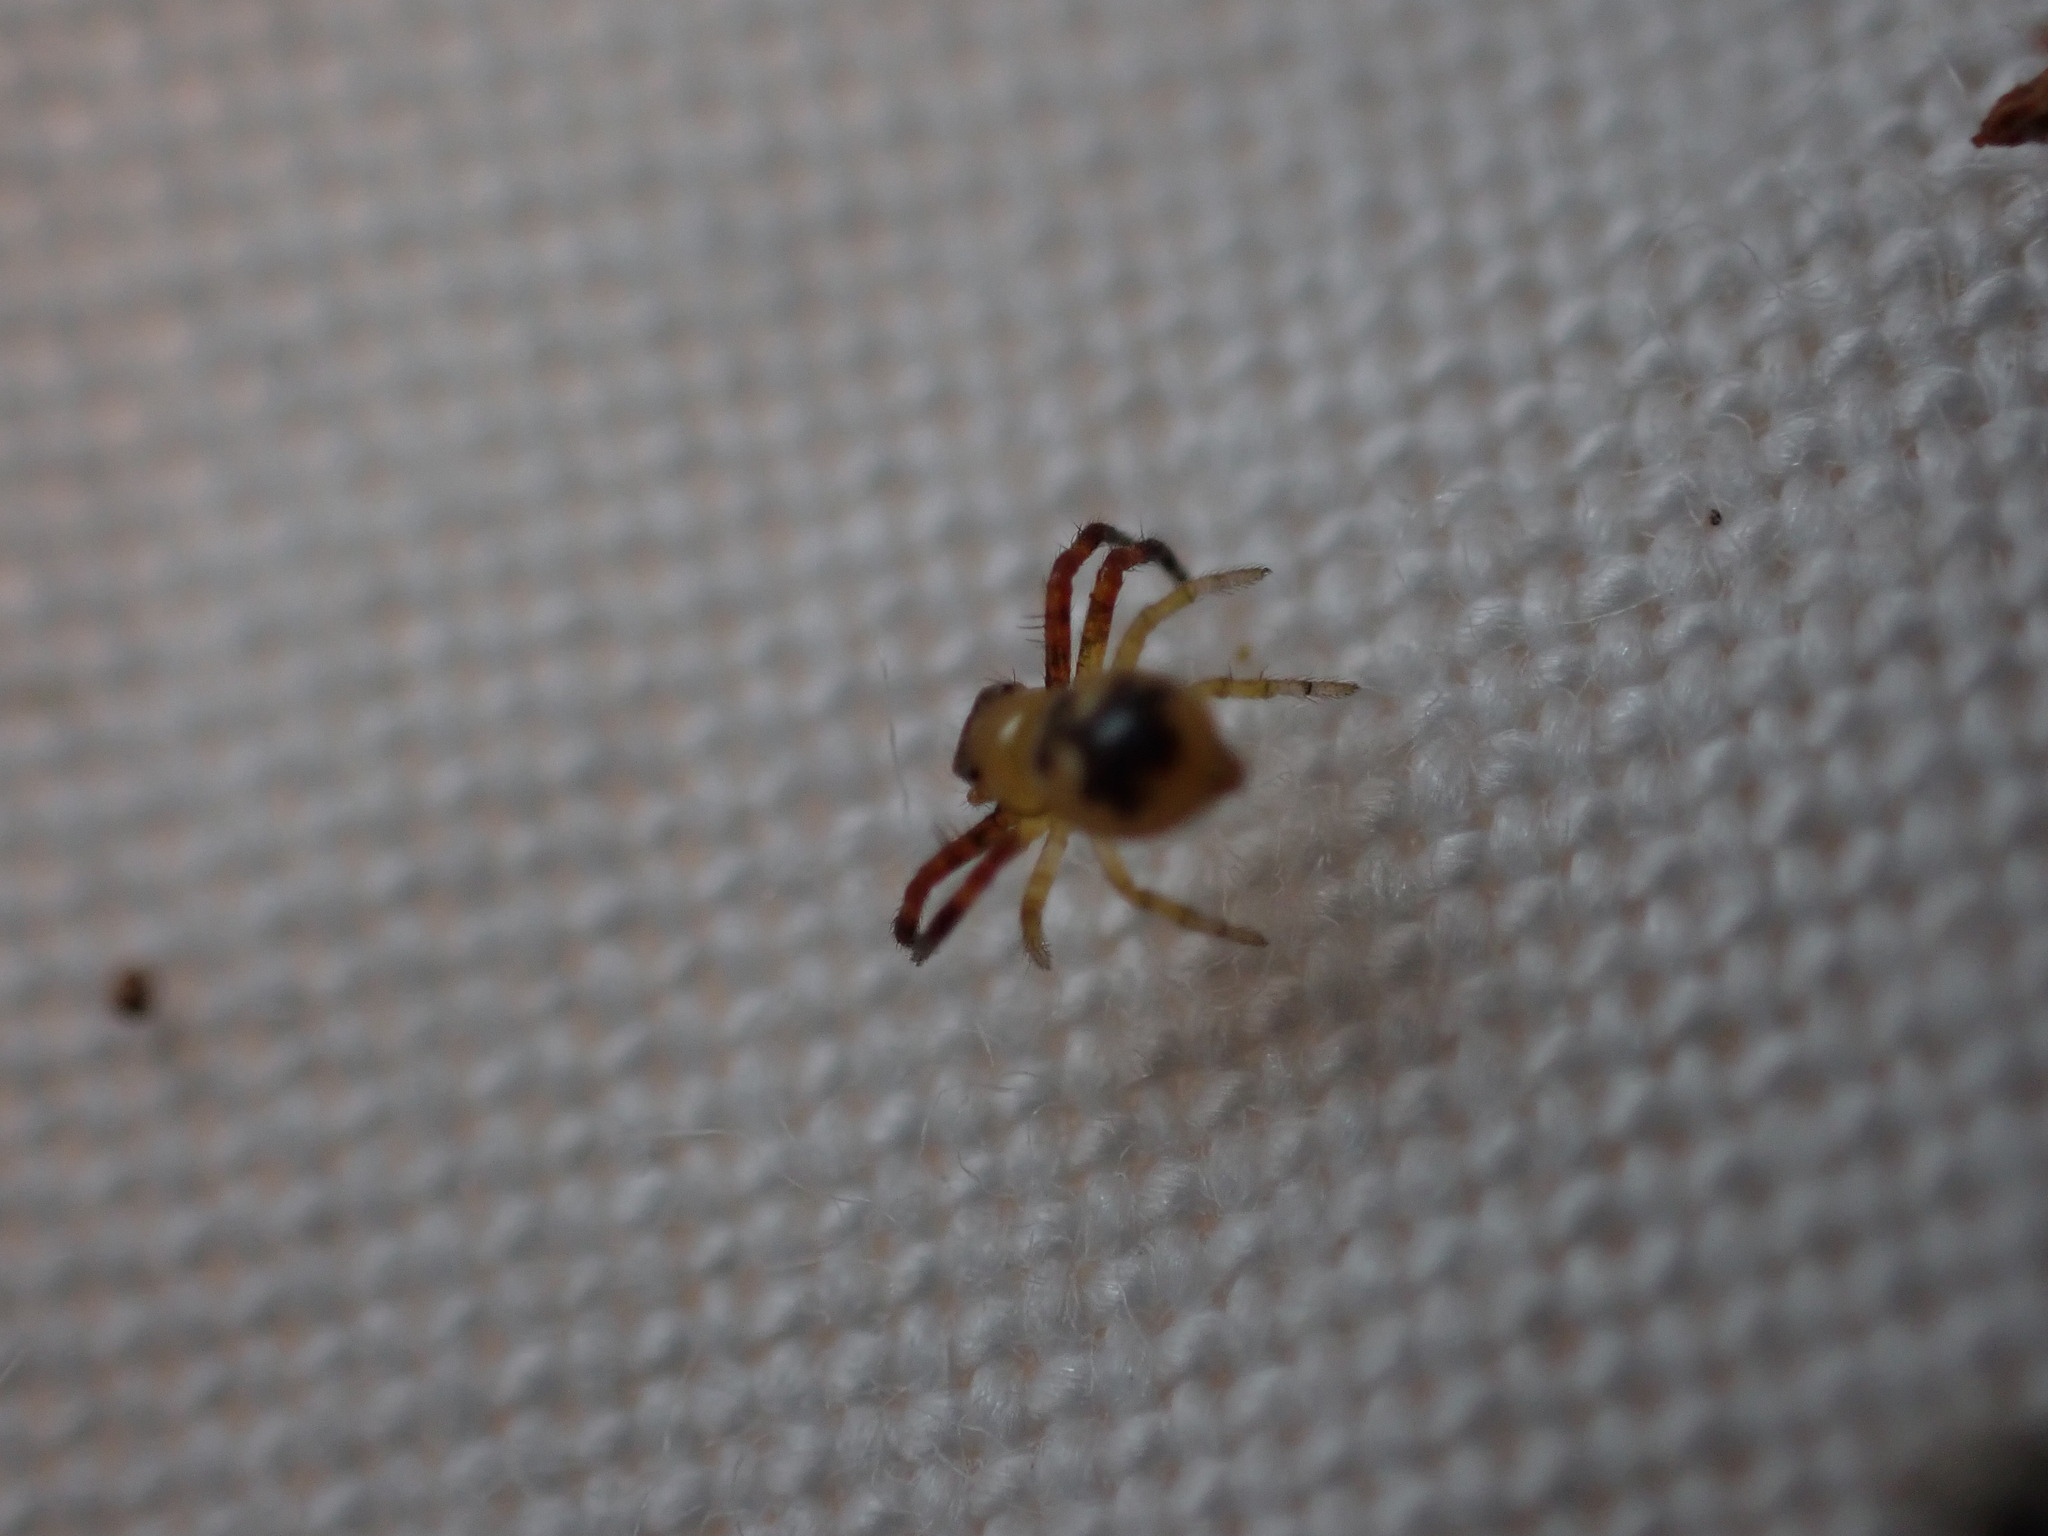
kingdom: Animalia
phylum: Arthropoda
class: Arachnida
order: Araneae
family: Thomisidae
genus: Synema
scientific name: Synema globosum
